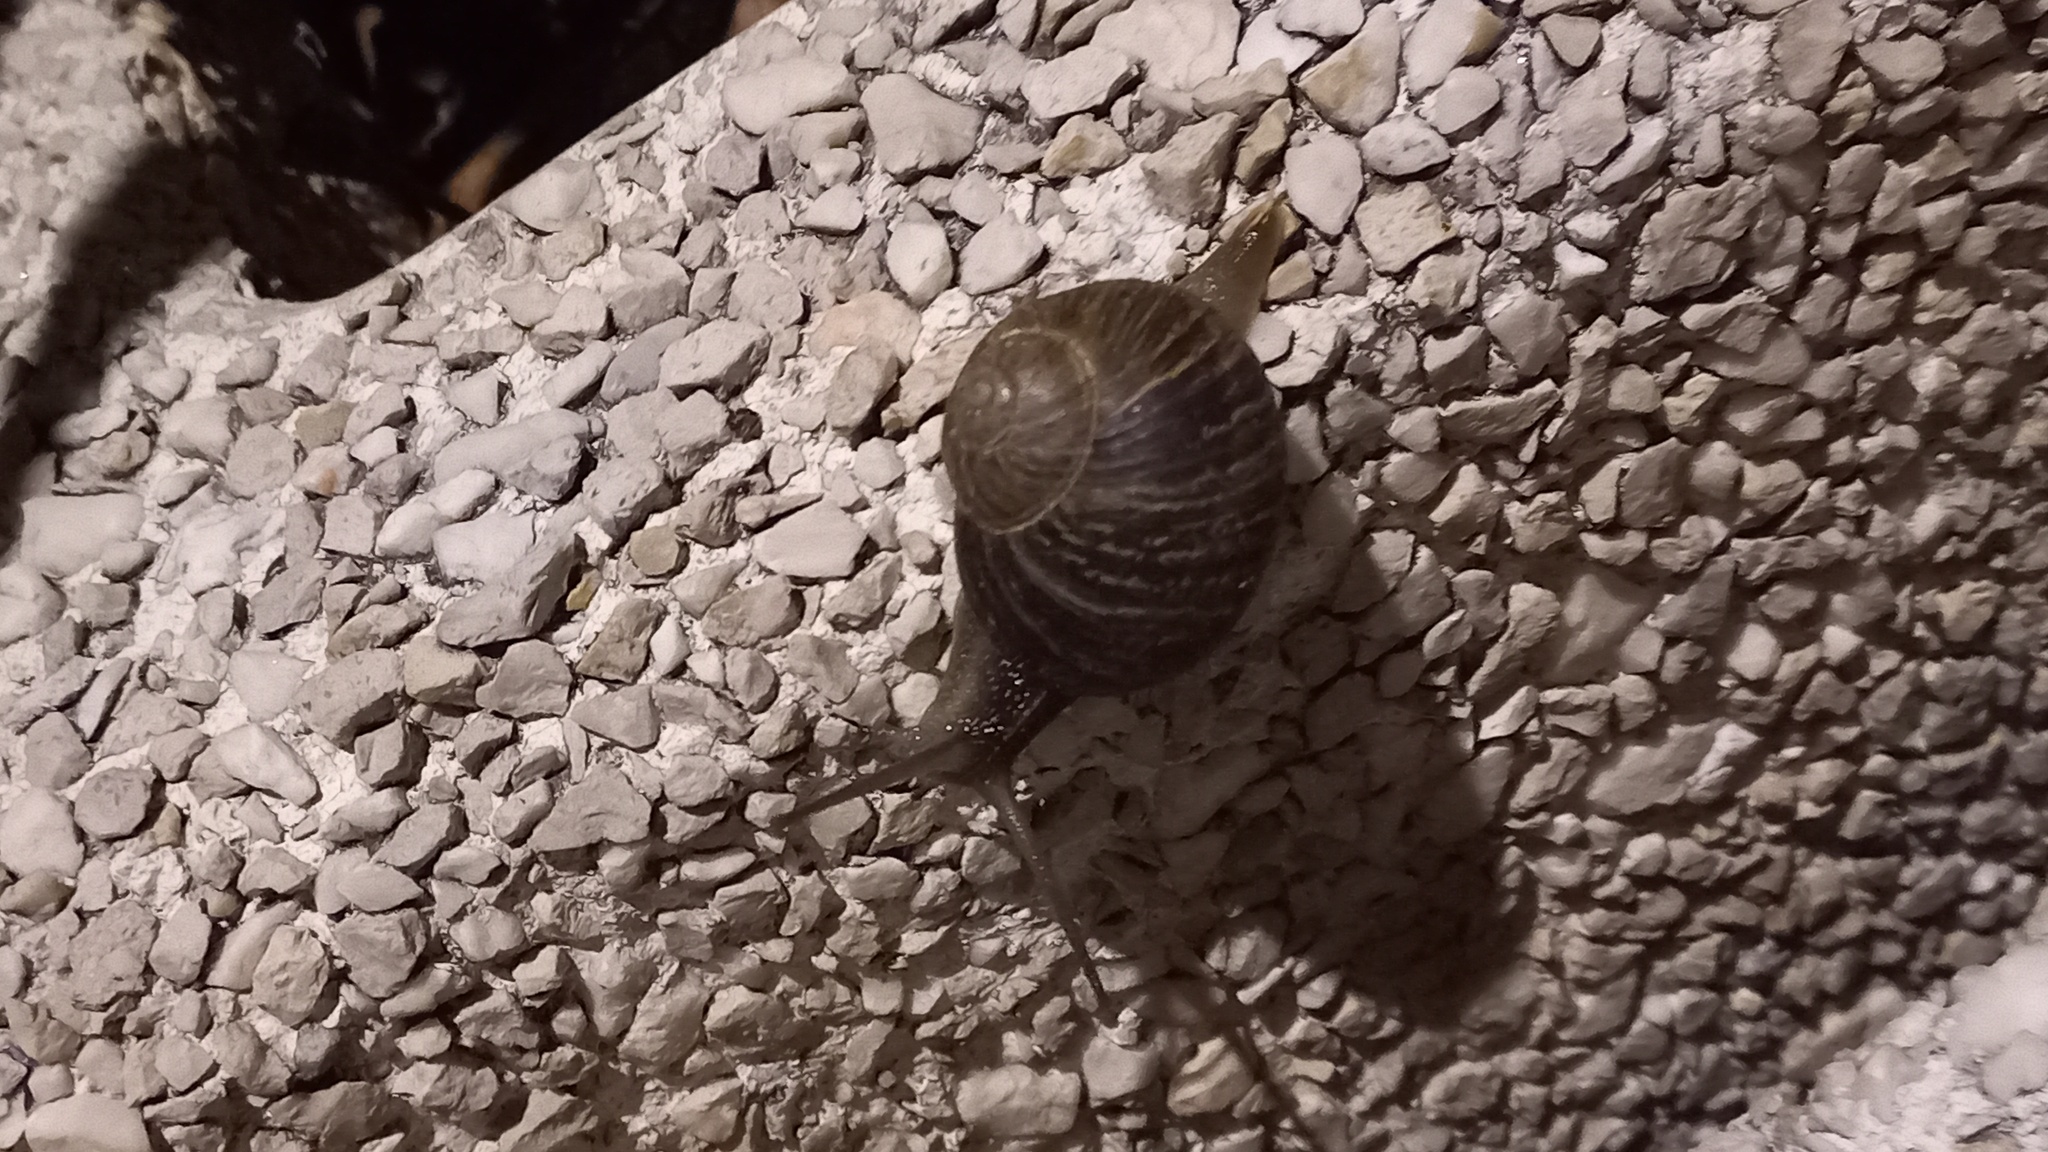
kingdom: Animalia
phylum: Mollusca
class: Gastropoda
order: Stylommatophora
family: Helicidae
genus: Cornu
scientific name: Cornu aspersum
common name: Brown garden snail
